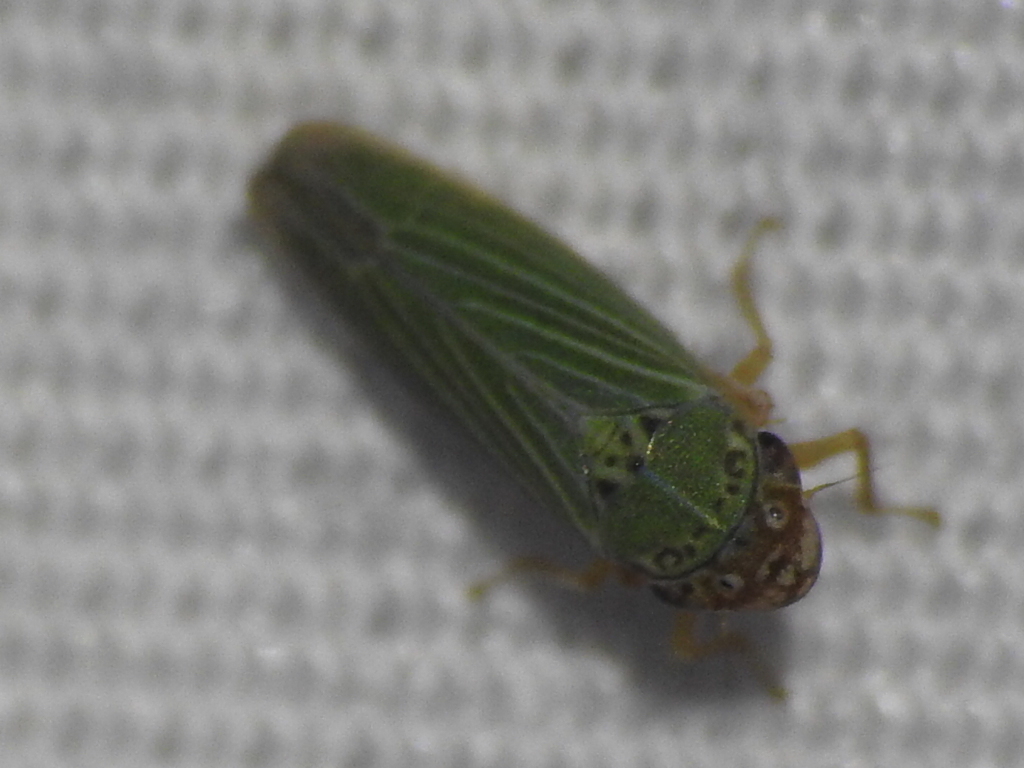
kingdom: Animalia
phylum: Arthropoda
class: Insecta
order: Hemiptera
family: Cicadellidae
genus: Xyphon
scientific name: Xyphon reticulatum
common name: Planthopper
